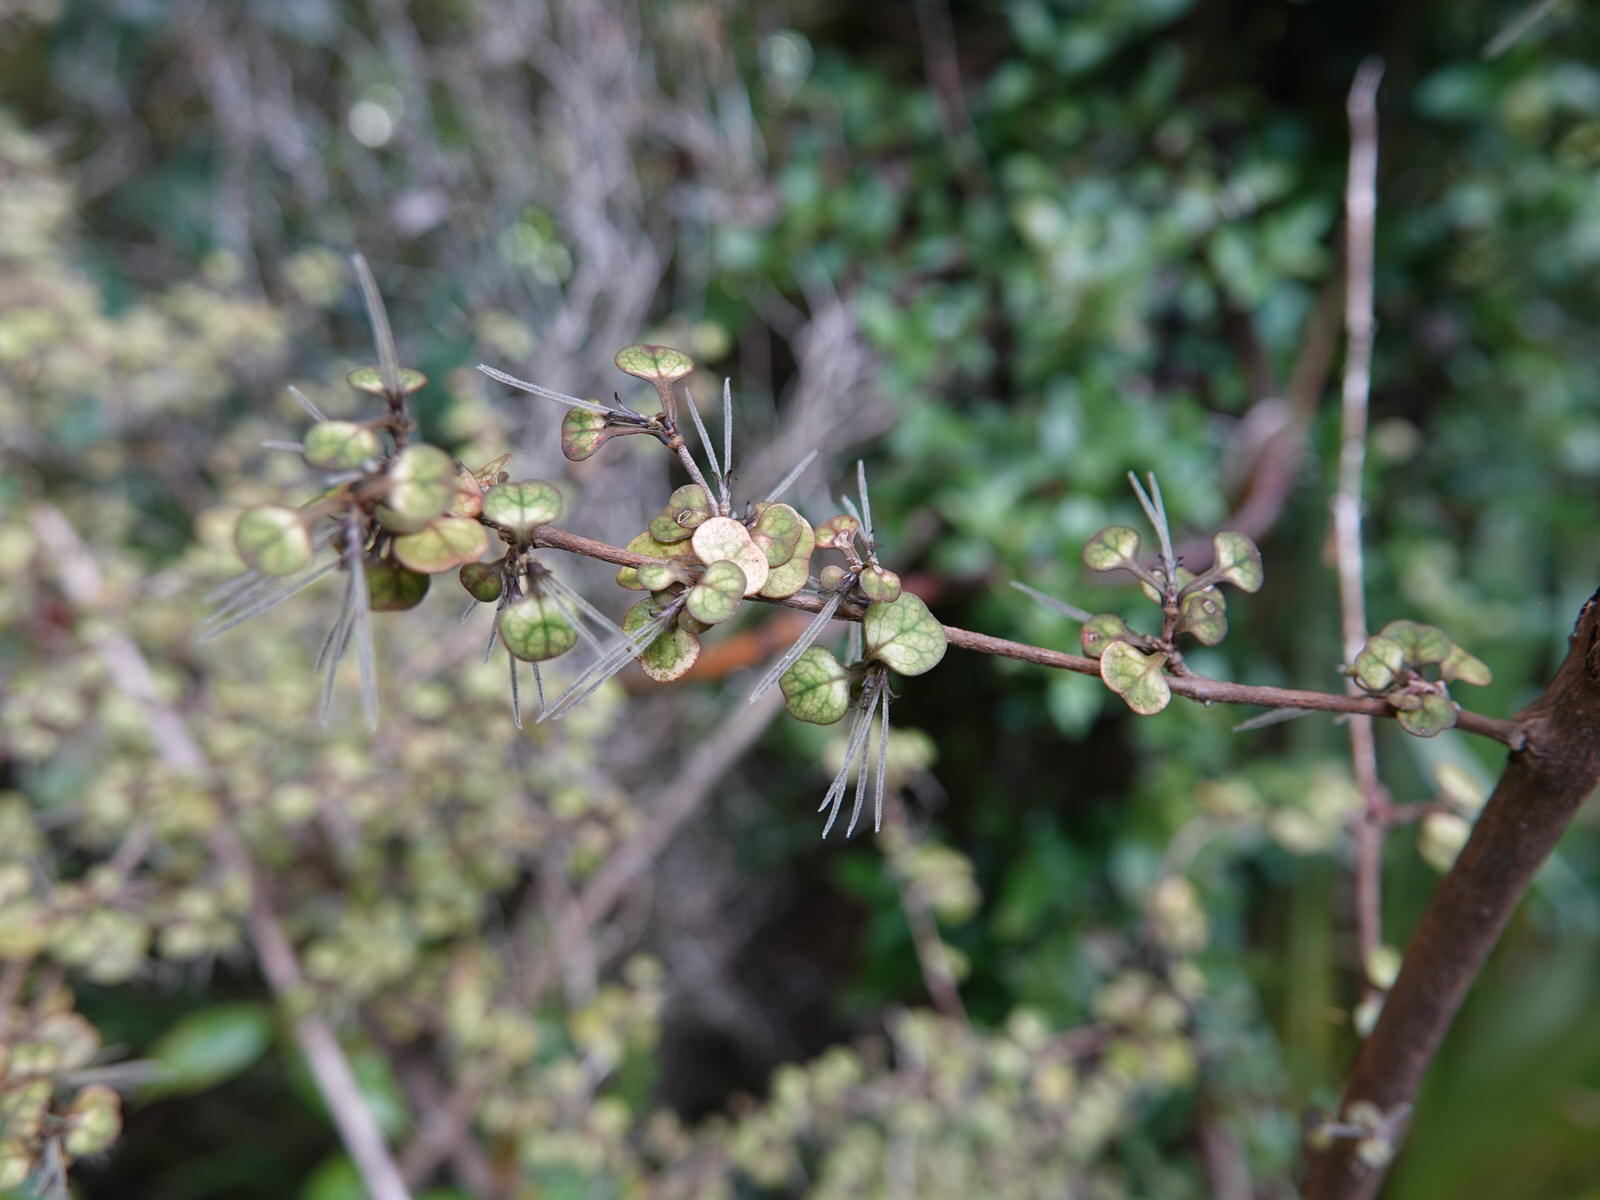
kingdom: Plantae
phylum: Tracheophyta
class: Magnoliopsida
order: Gentianales
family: Rubiaceae
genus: Coprosma
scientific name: Coprosma spathulata
